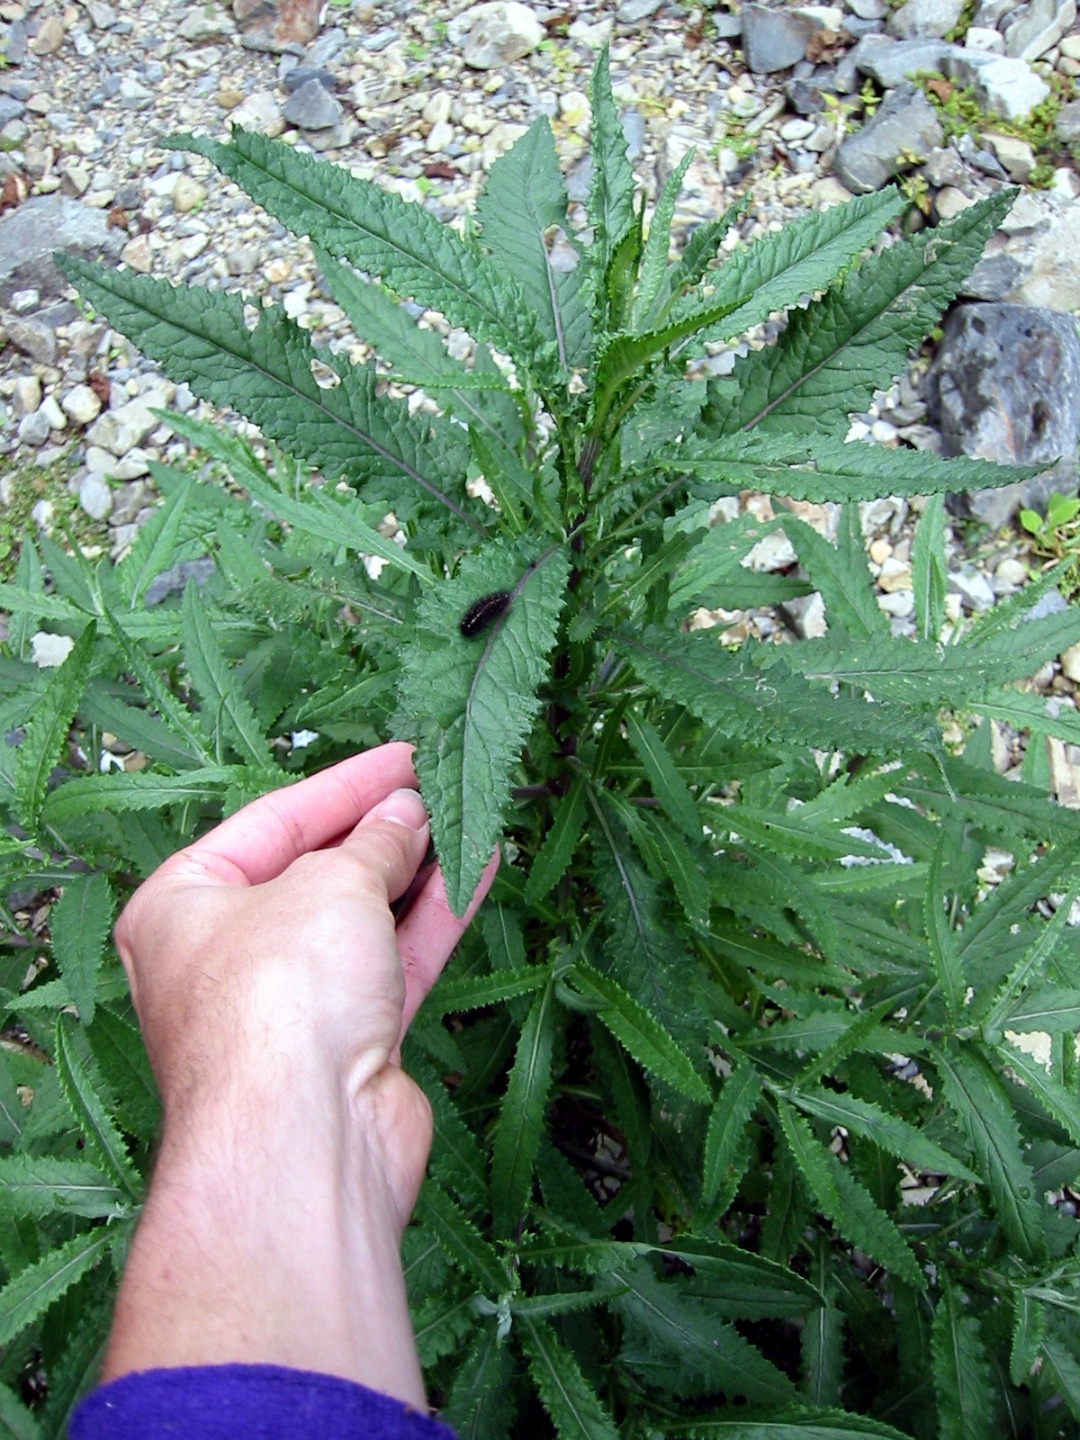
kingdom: Animalia
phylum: Arthropoda
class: Insecta
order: Lepidoptera
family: Erebidae
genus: Nyctemera
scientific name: Nyctemera annulatum
